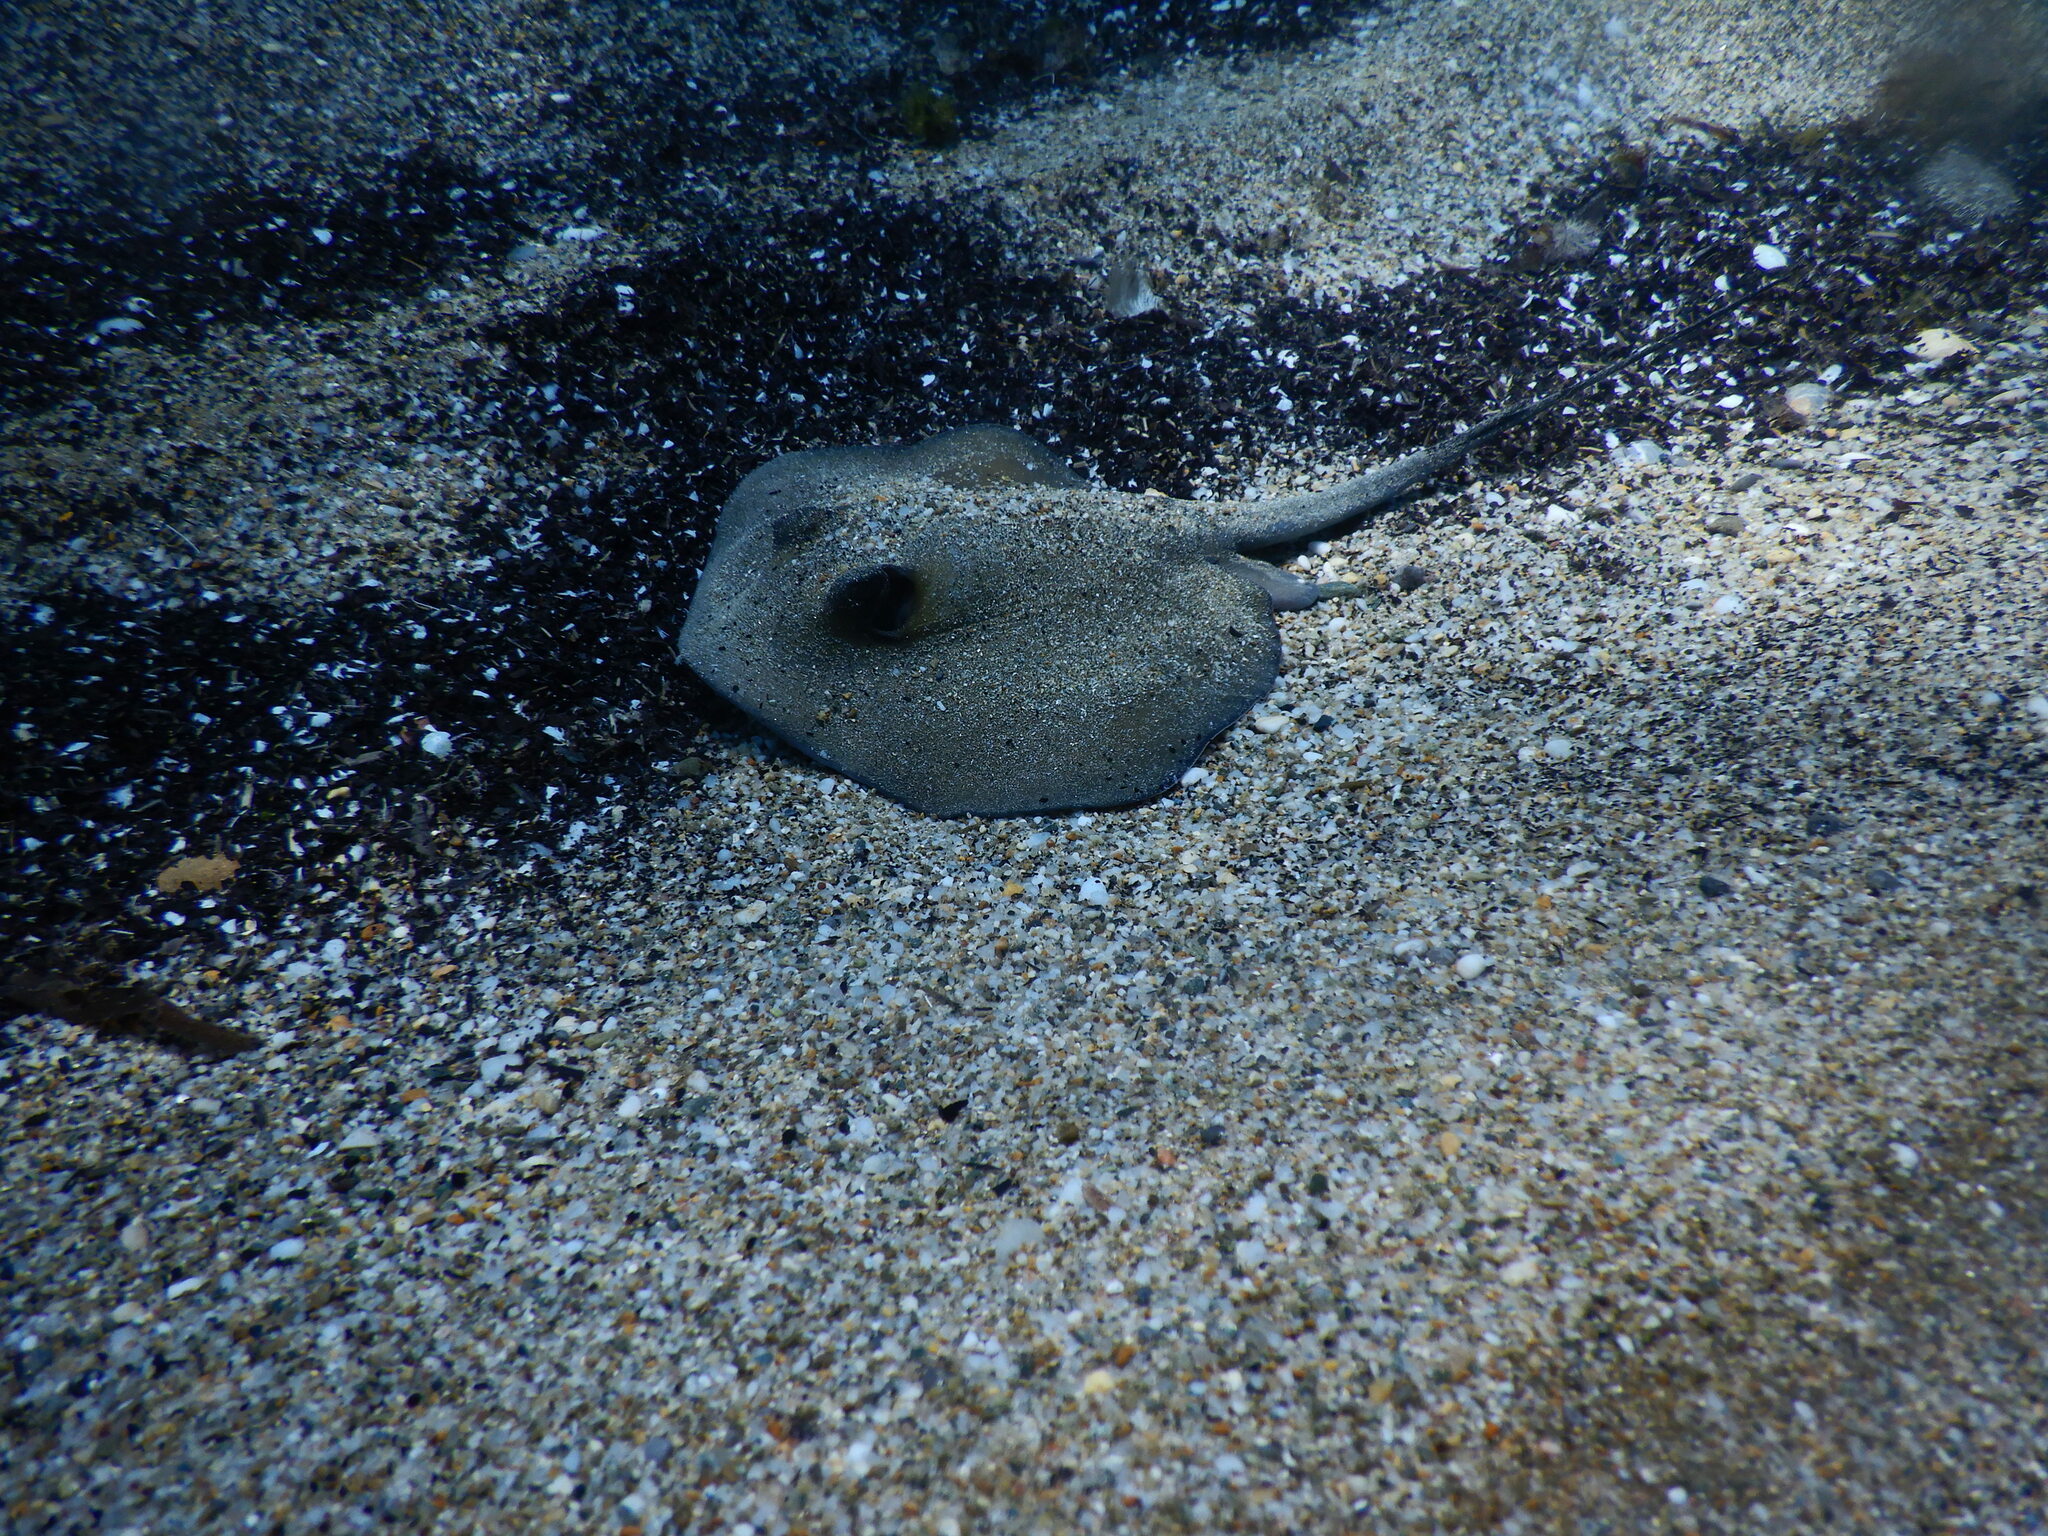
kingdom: Animalia
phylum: Chordata
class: Elasmobranchii
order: Myliobatiformes
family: Dasyatidae
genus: Dasyatis
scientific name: Dasyatis pastinaca
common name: Common stingray
